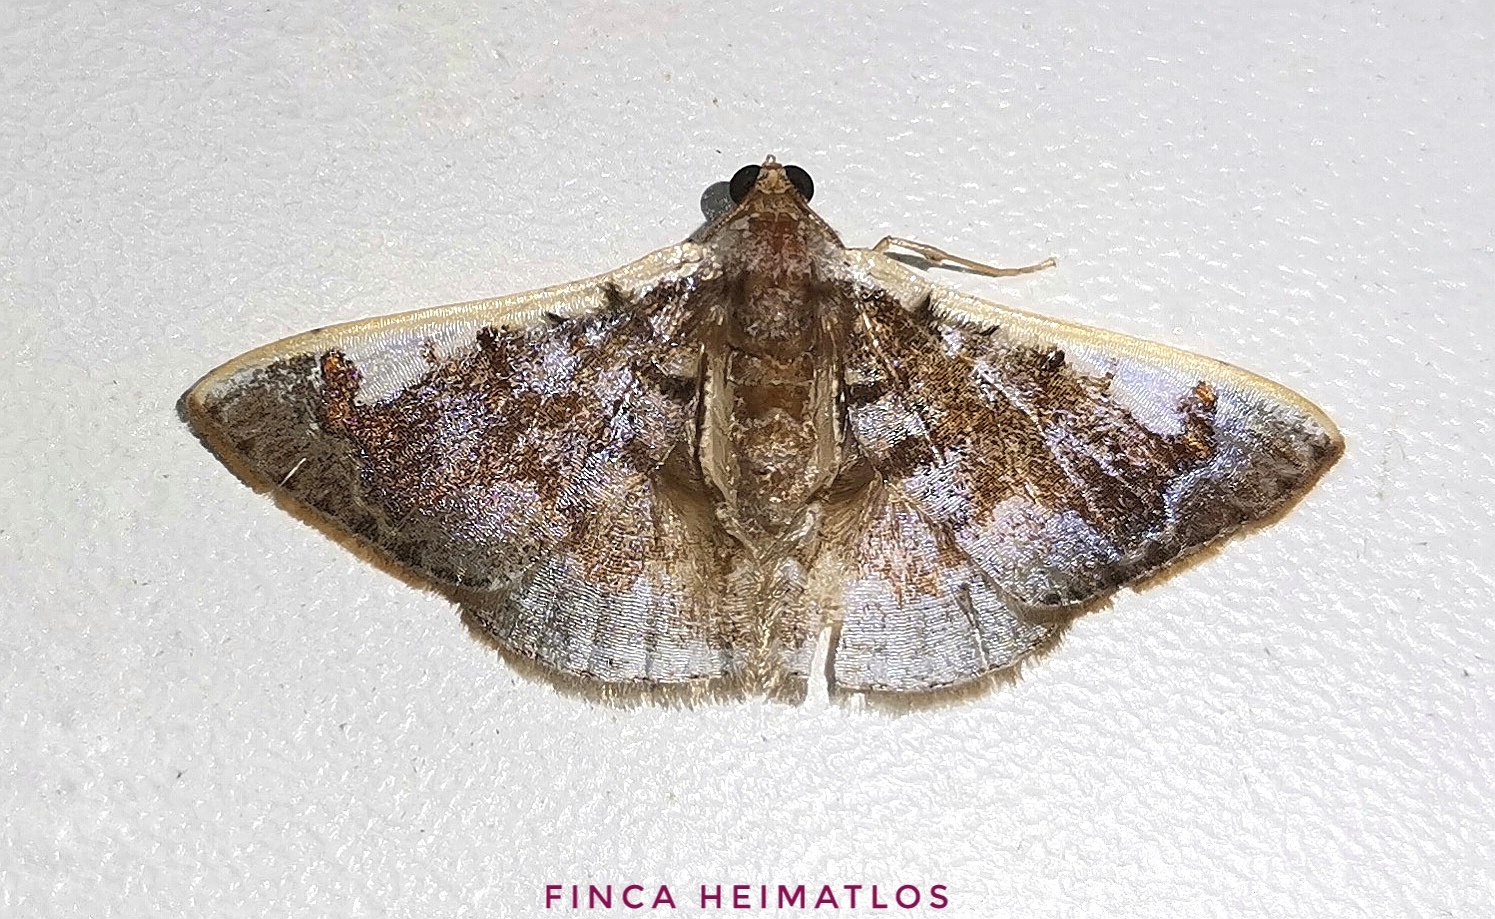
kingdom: Animalia
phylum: Arthropoda
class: Insecta
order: Lepidoptera
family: Geometridae
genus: Gyostega
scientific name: Gyostega floccosa
